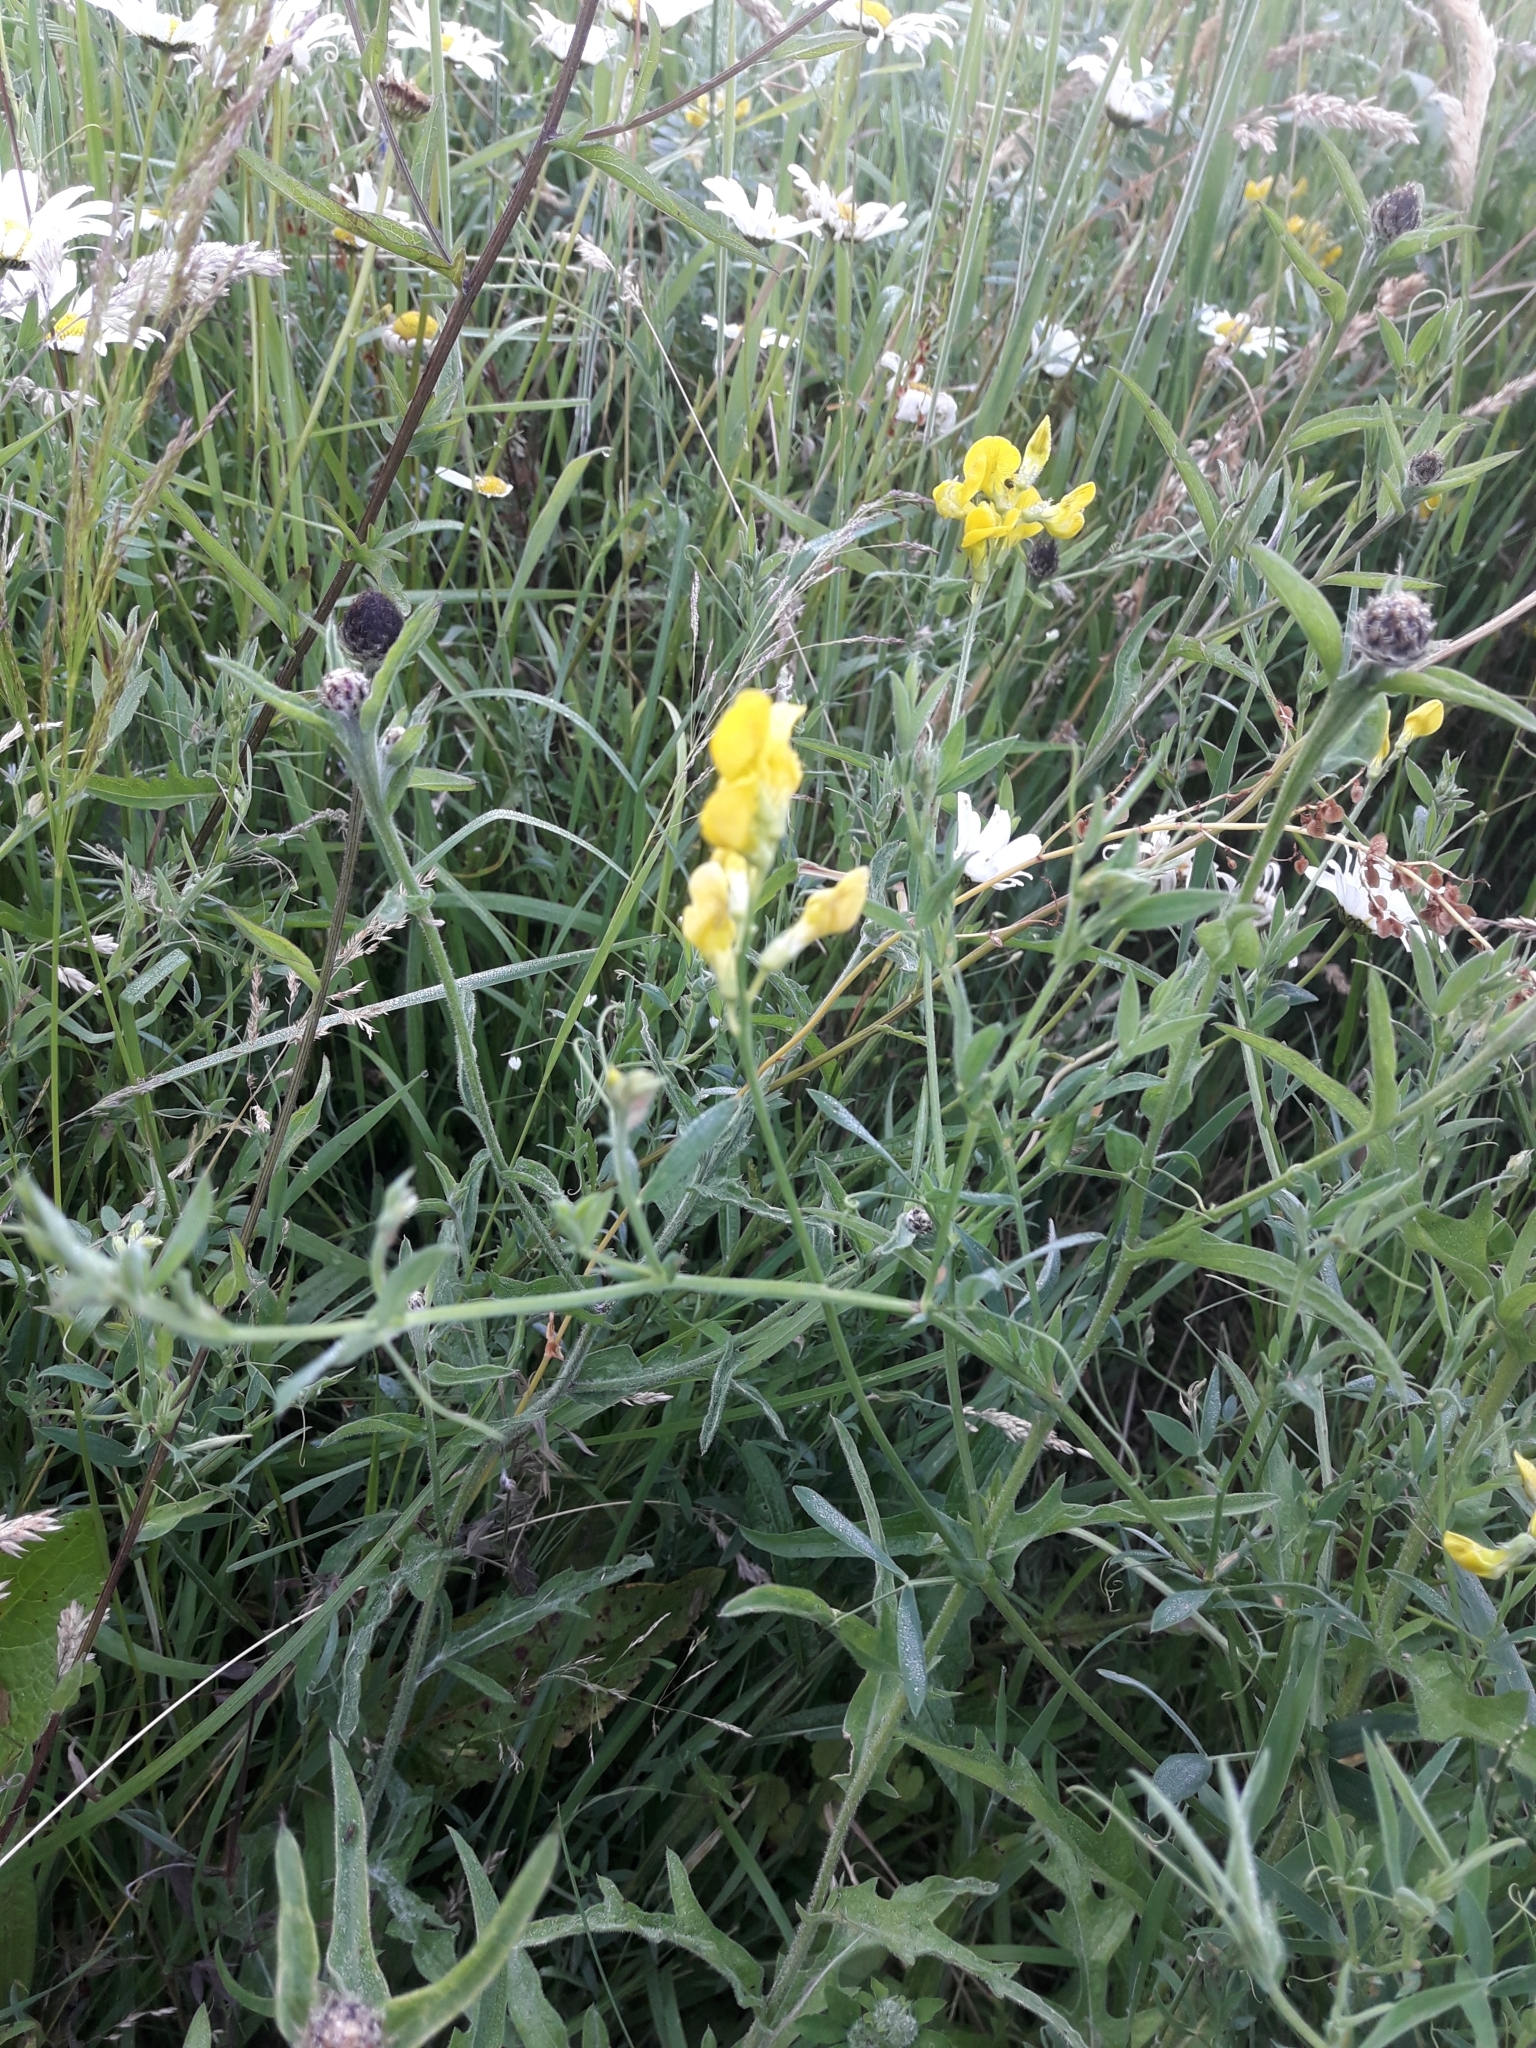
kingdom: Plantae
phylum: Tracheophyta
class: Magnoliopsida
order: Fabales
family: Fabaceae
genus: Lathyrus
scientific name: Lathyrus pratensis
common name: Meadow vetchling
